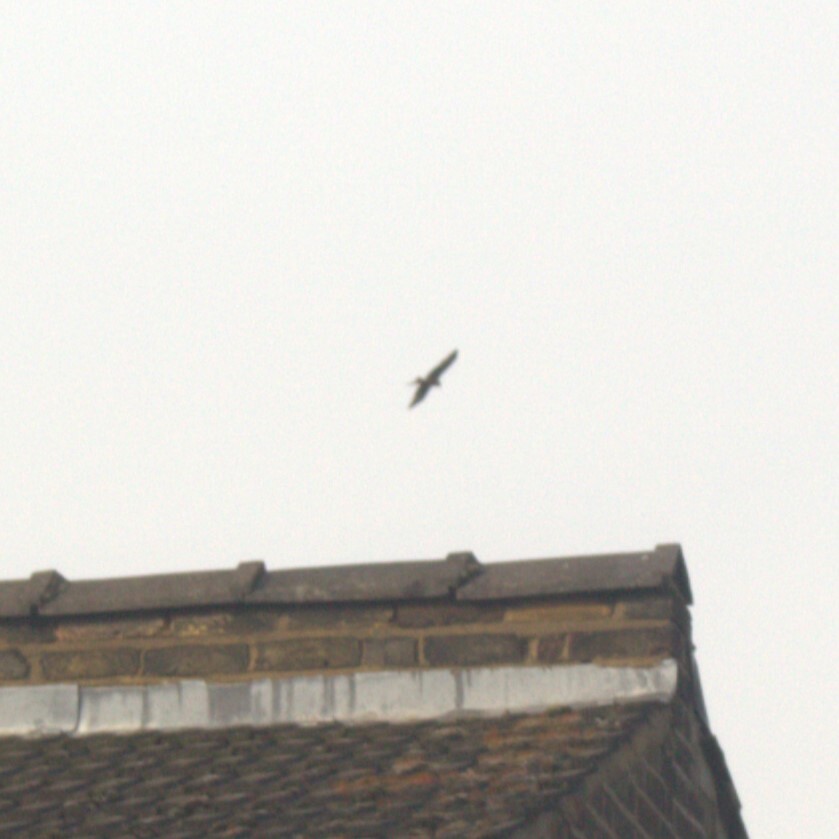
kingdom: Animalia
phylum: Chordata
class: Aves
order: Accipitriformes
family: Accipitridae
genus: Milvus
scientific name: Milvus milvus
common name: Red kite
